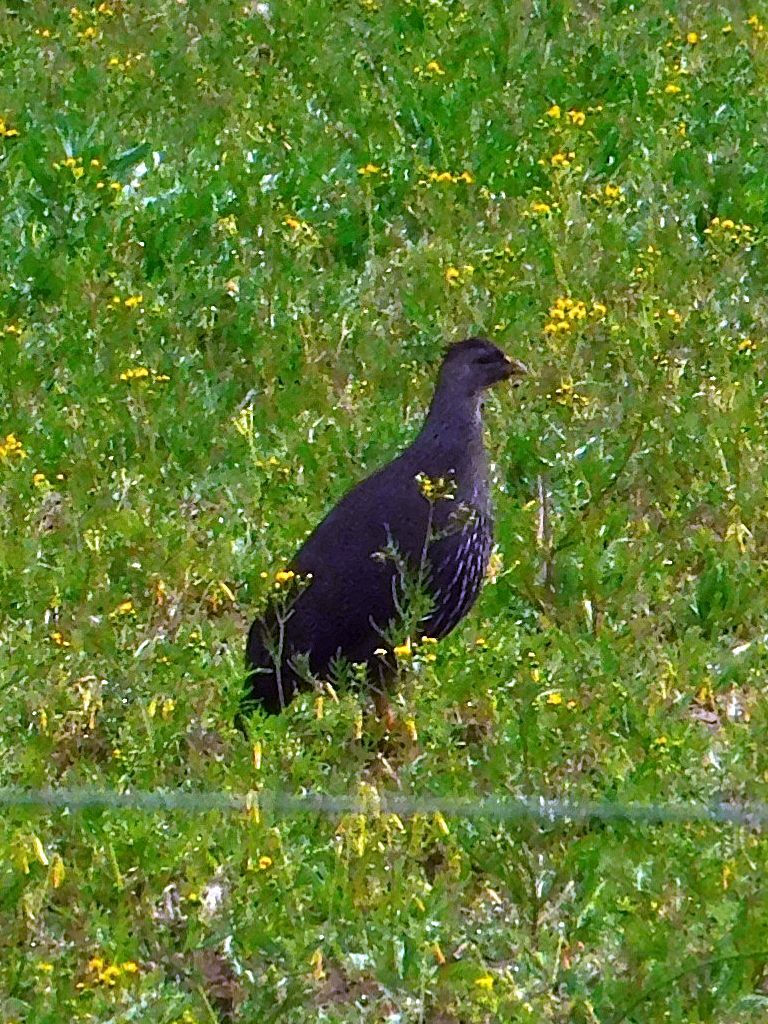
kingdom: Animalia
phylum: Chordata
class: Aves
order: Galliformes
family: Phasianidae
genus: Pternistis
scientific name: Pternistis capensis
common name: Cape spurfowl
